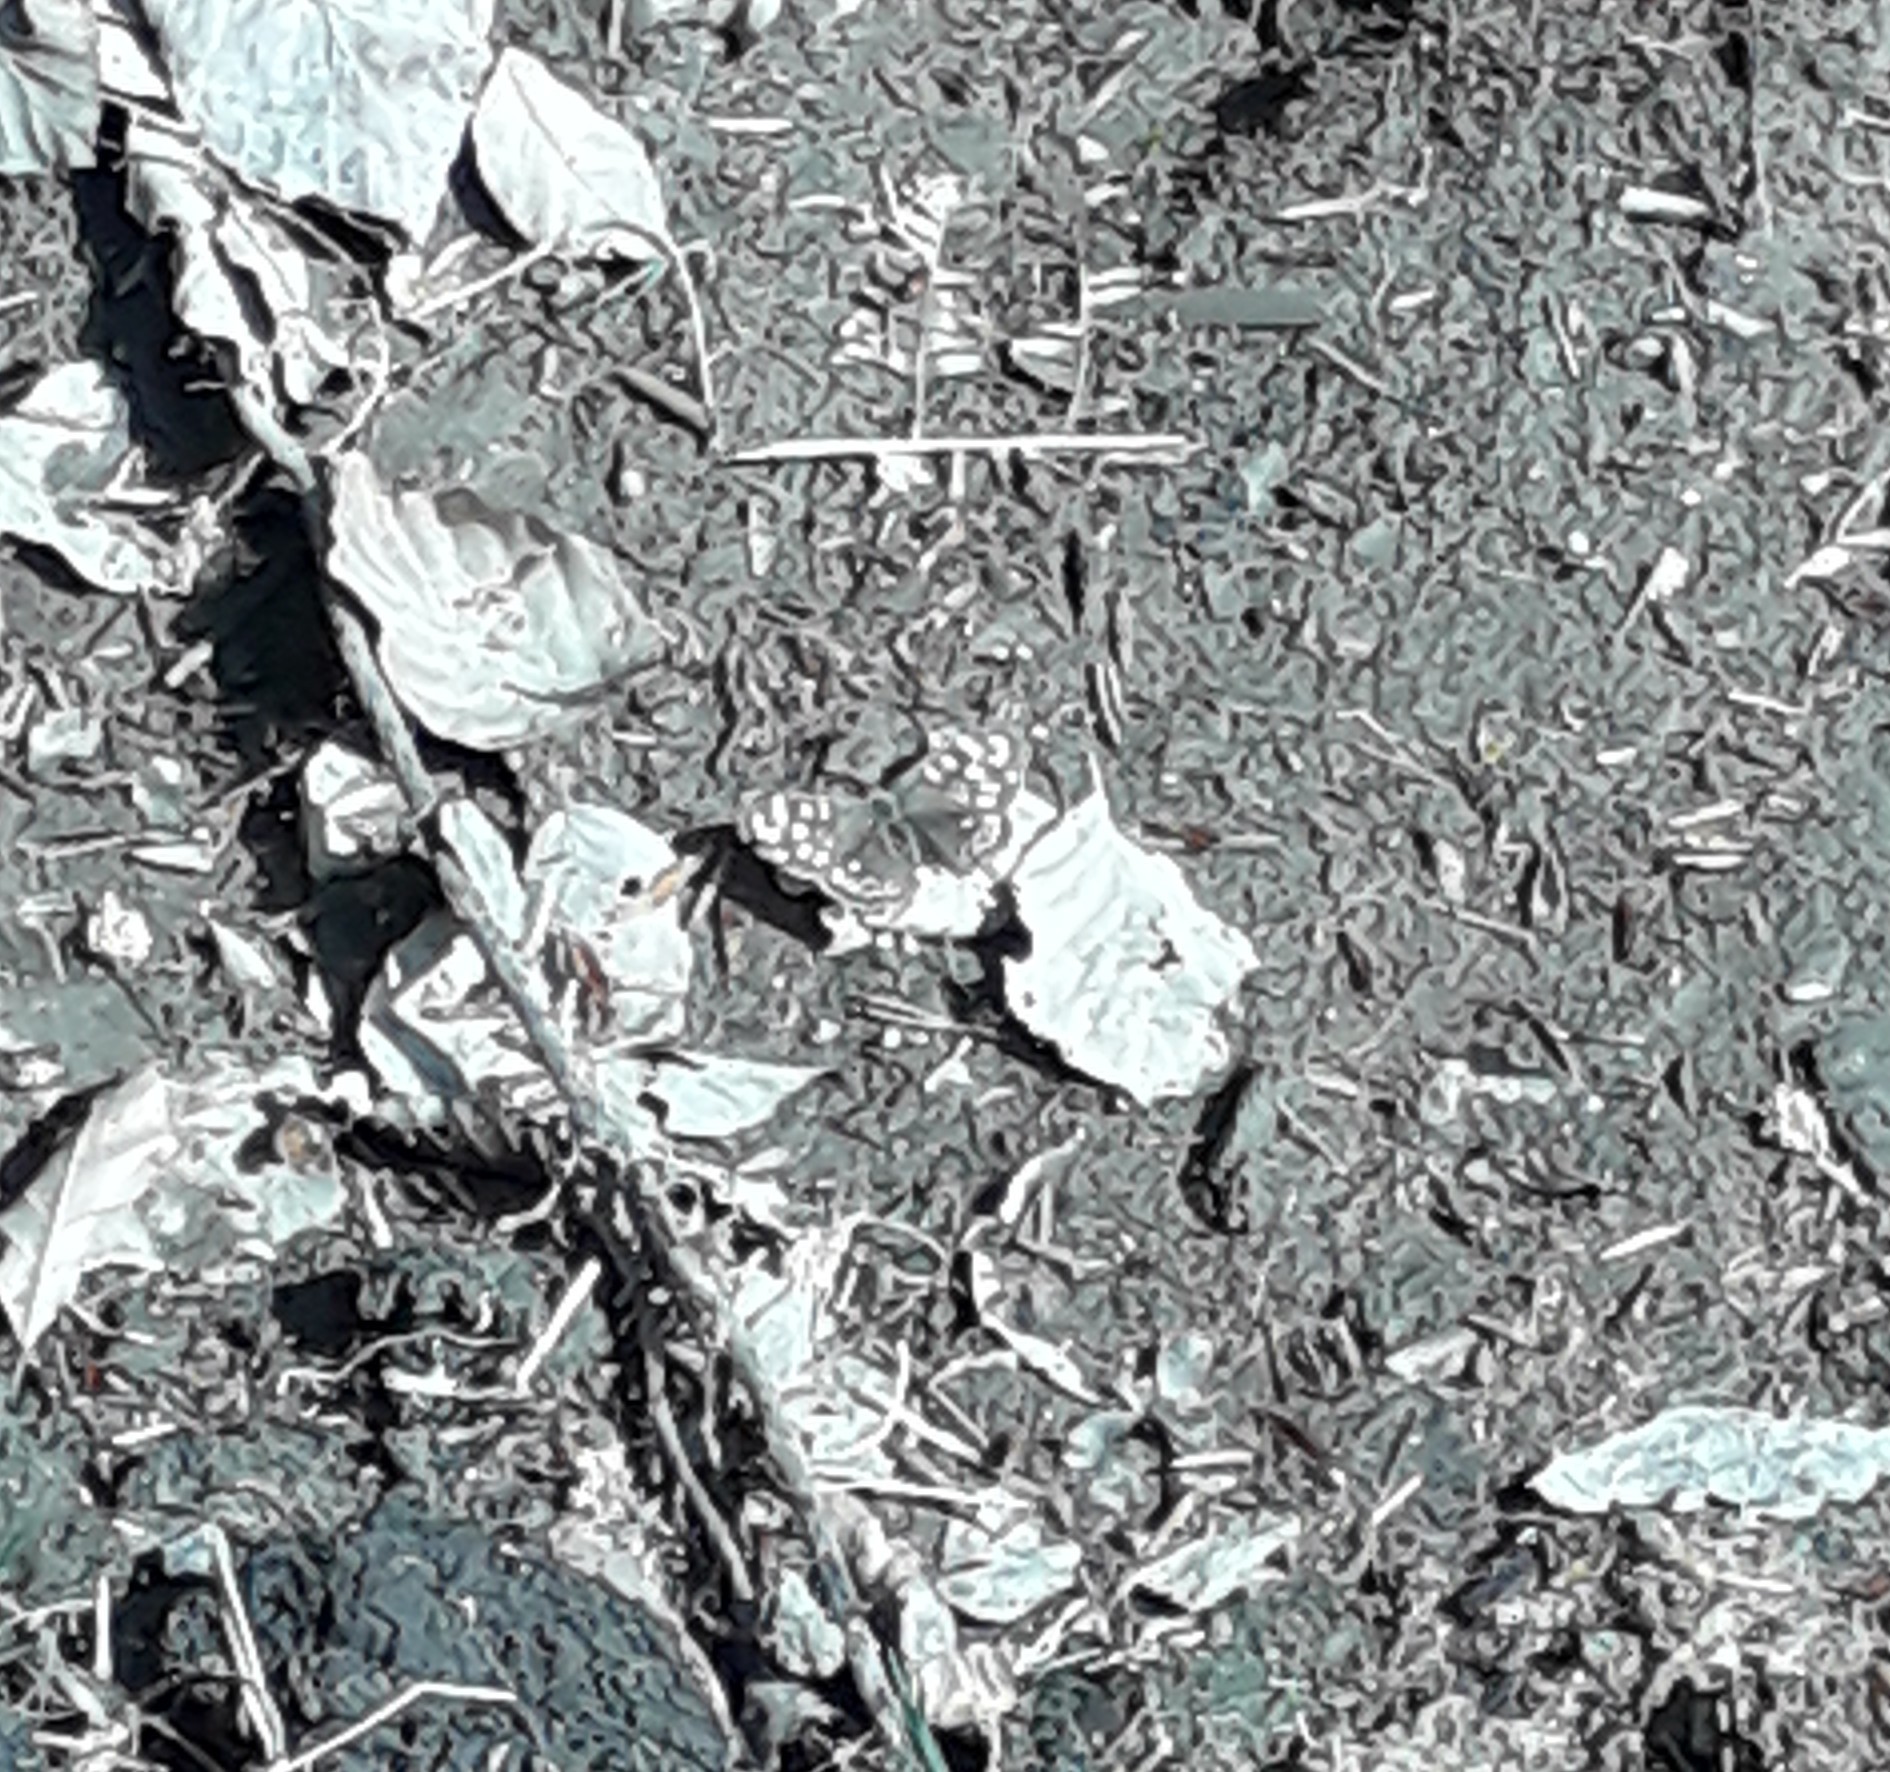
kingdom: Animalia
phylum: Arthropoda
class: Insecta
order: Lepidoptera
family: Nymphalidae
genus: Pararge
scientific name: Pararge aegeria
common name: Speckled wood
